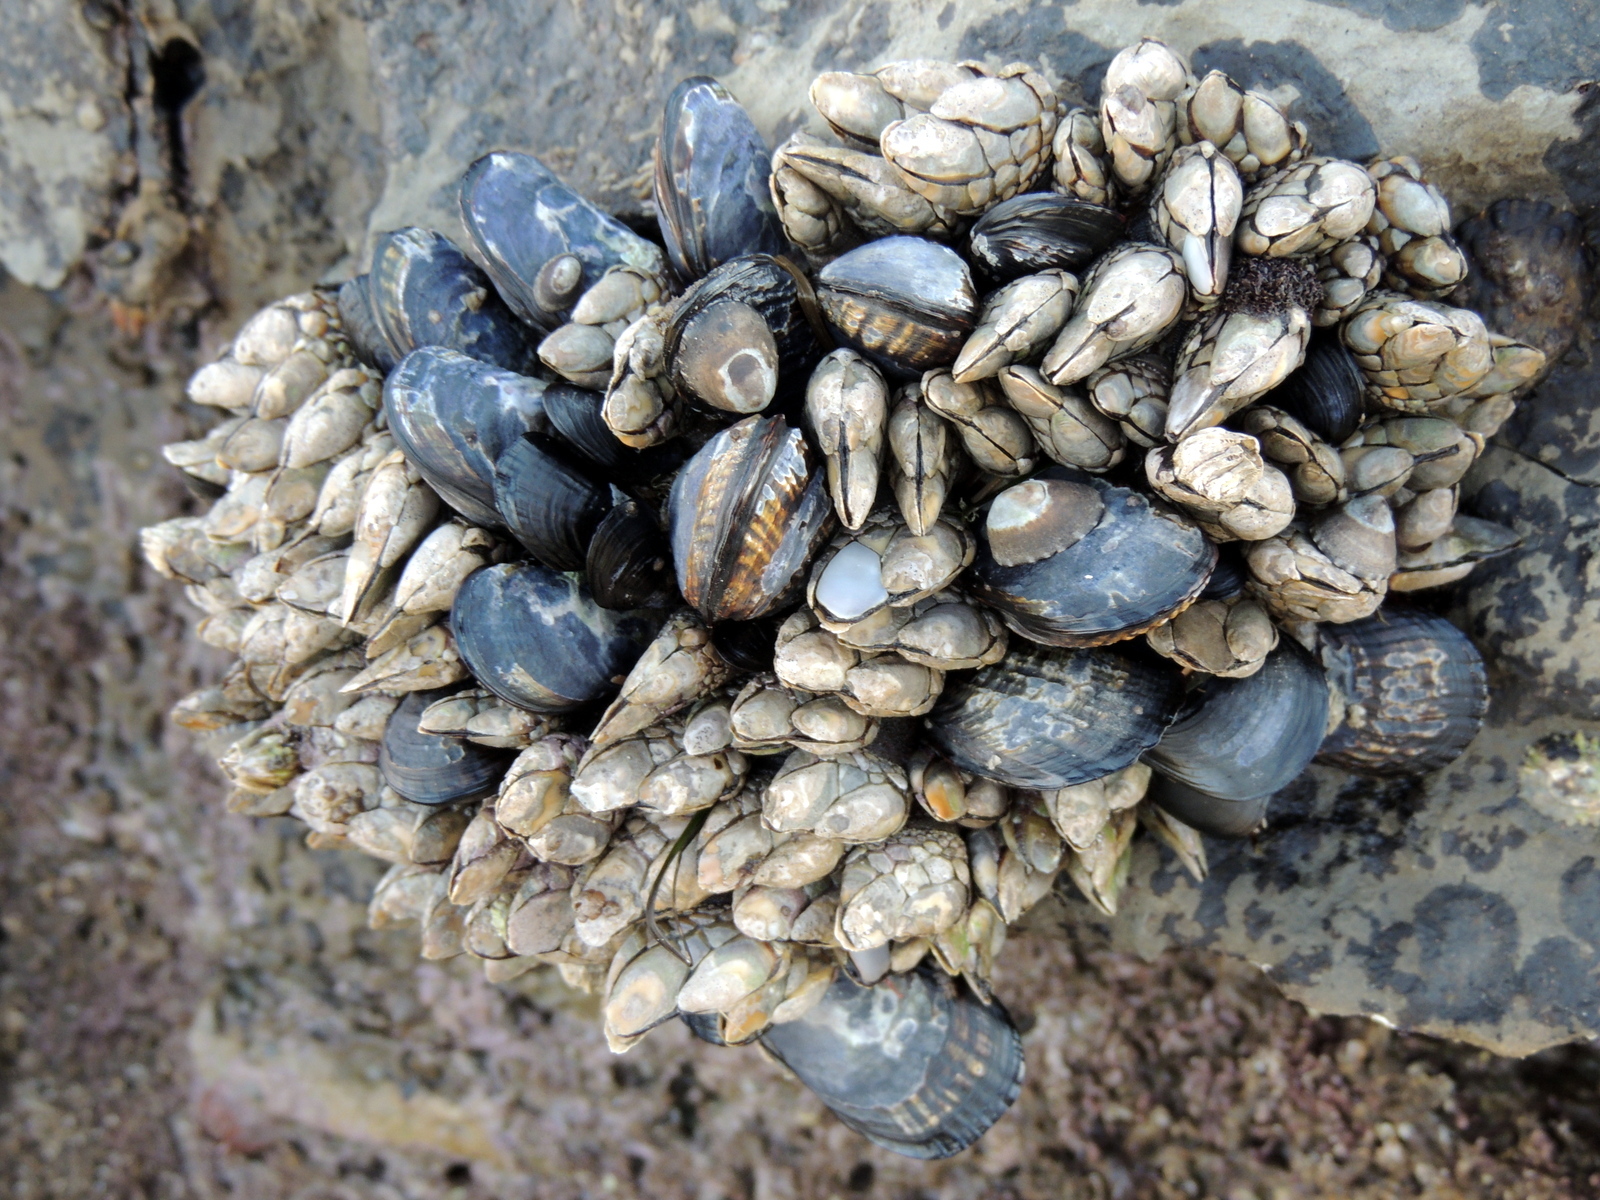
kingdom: Animalia
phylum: Mollusca
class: Bivalvia
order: Mytilida
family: Mytilidae
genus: Mytilus
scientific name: Mytilus californianus
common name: California mussel
